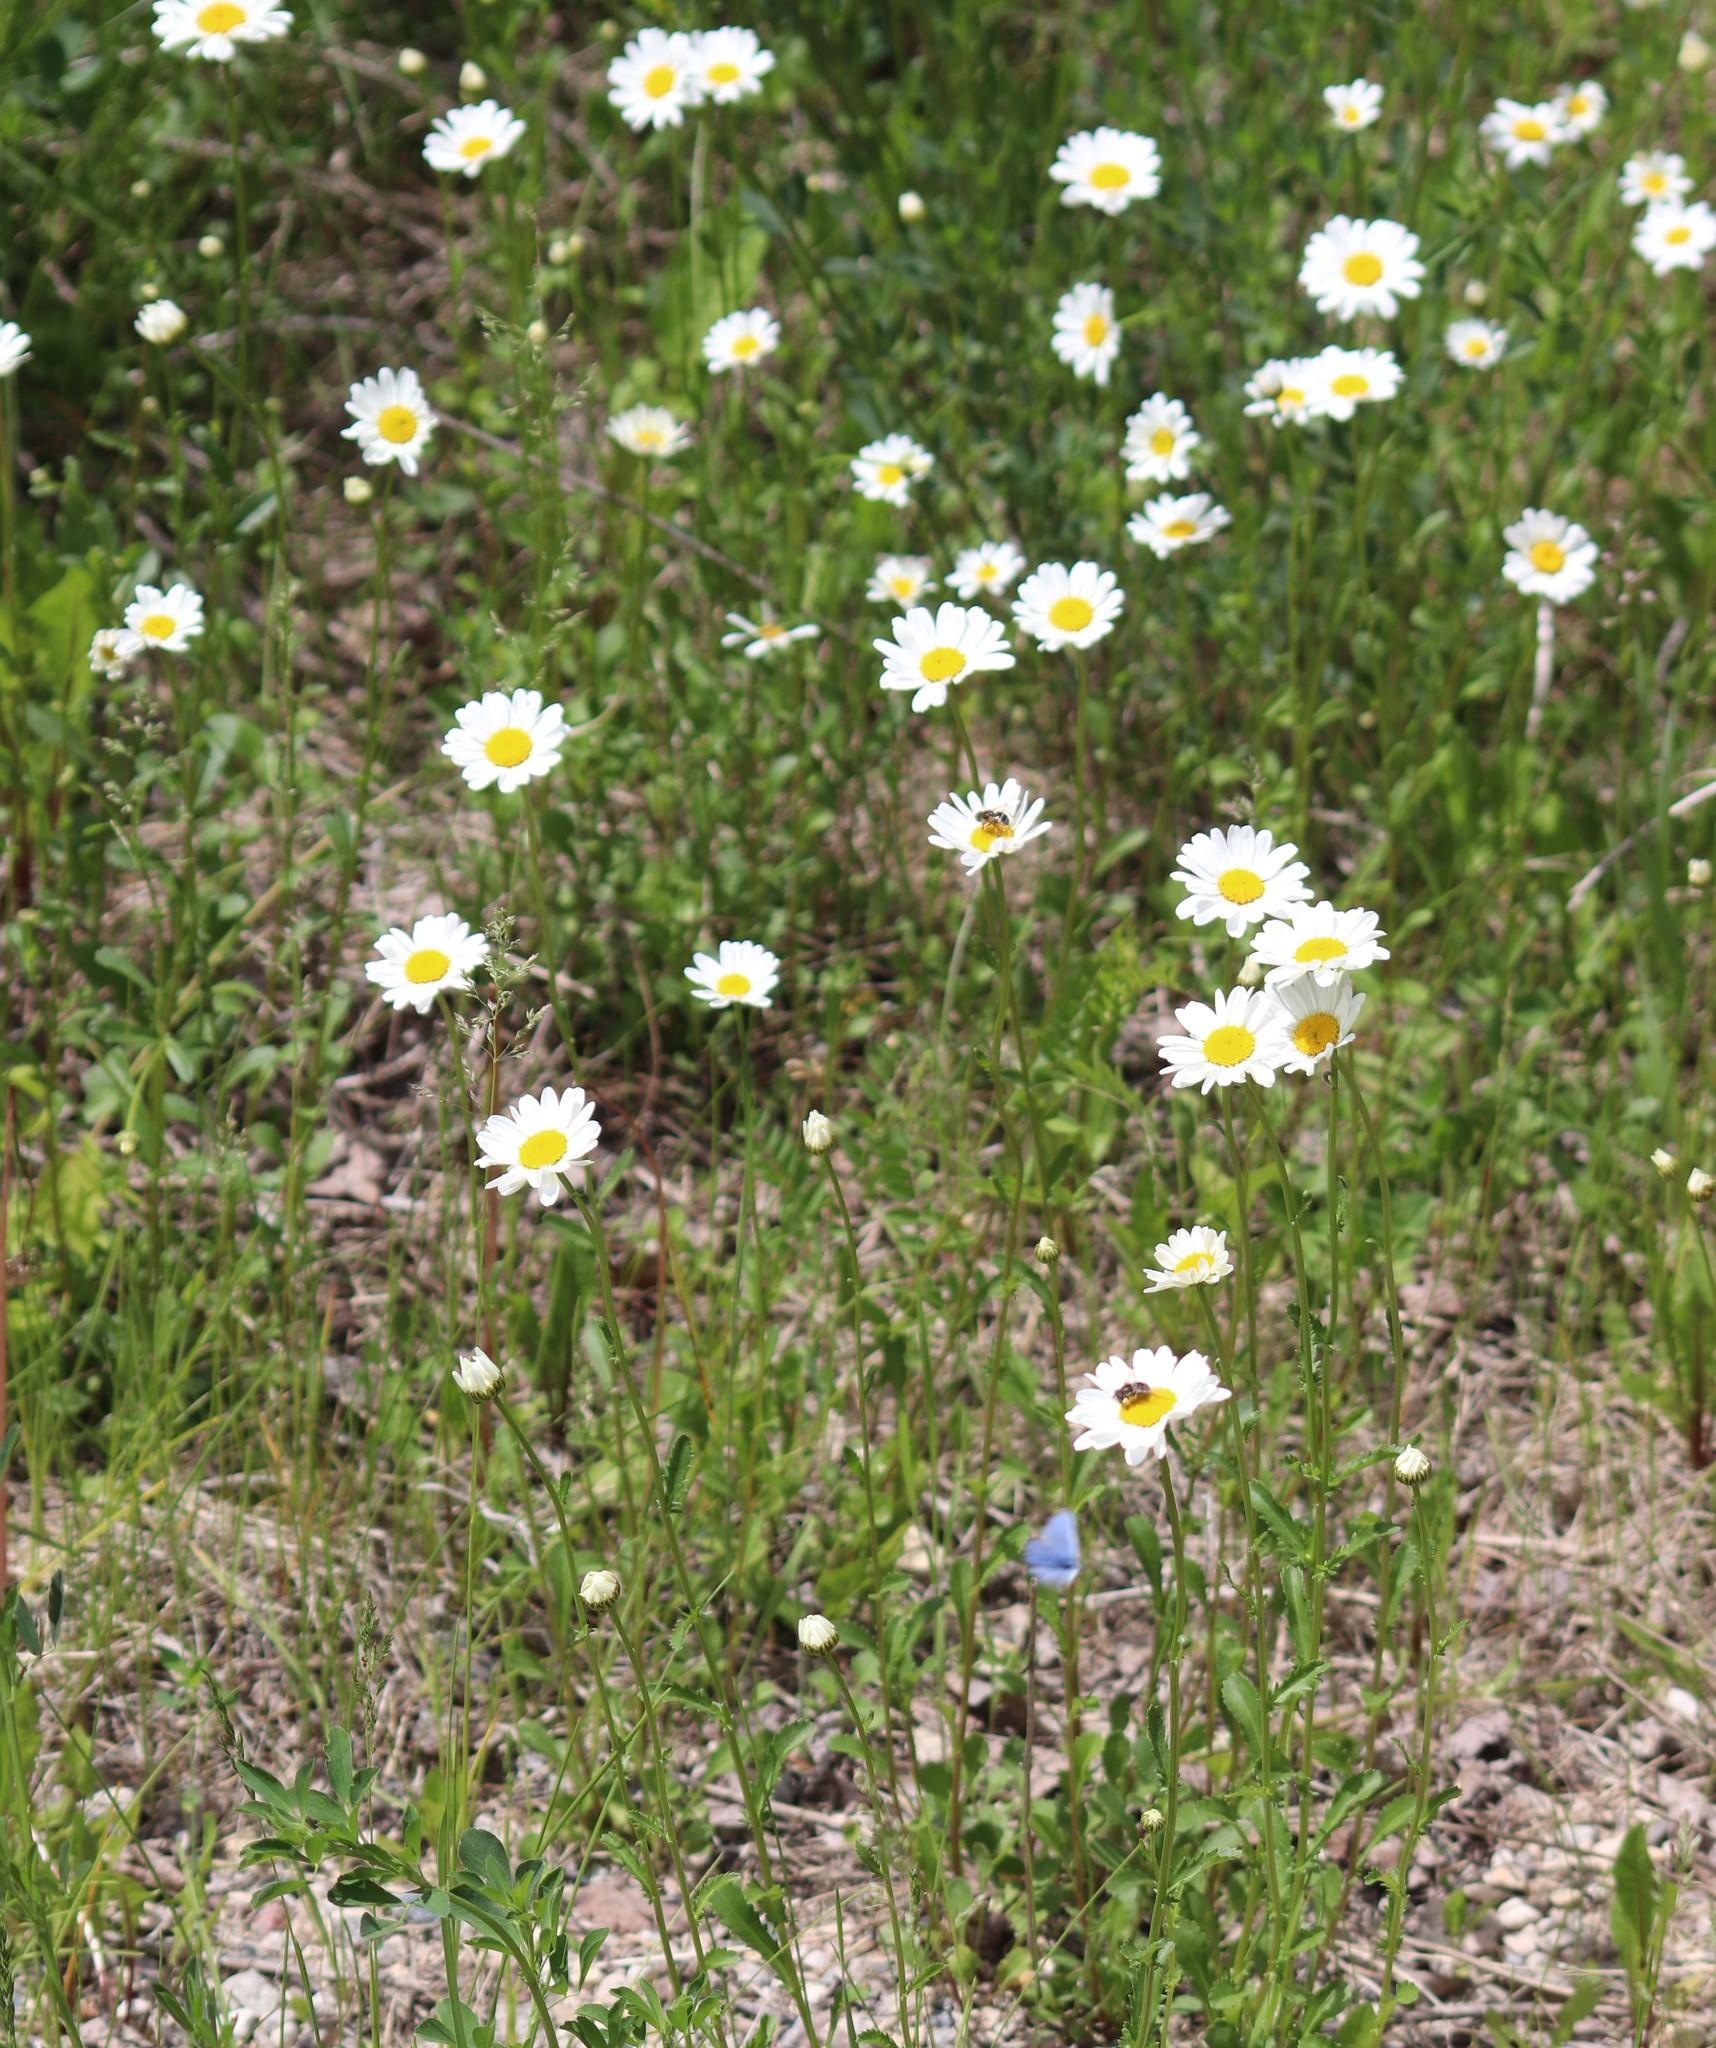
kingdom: Plantae
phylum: Tracheophyta
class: Magnoliopsida
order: Asterales
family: Asteraceae
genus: Leucanthemum
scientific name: Leucanthemum vulgare
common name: Oxeye daisy
